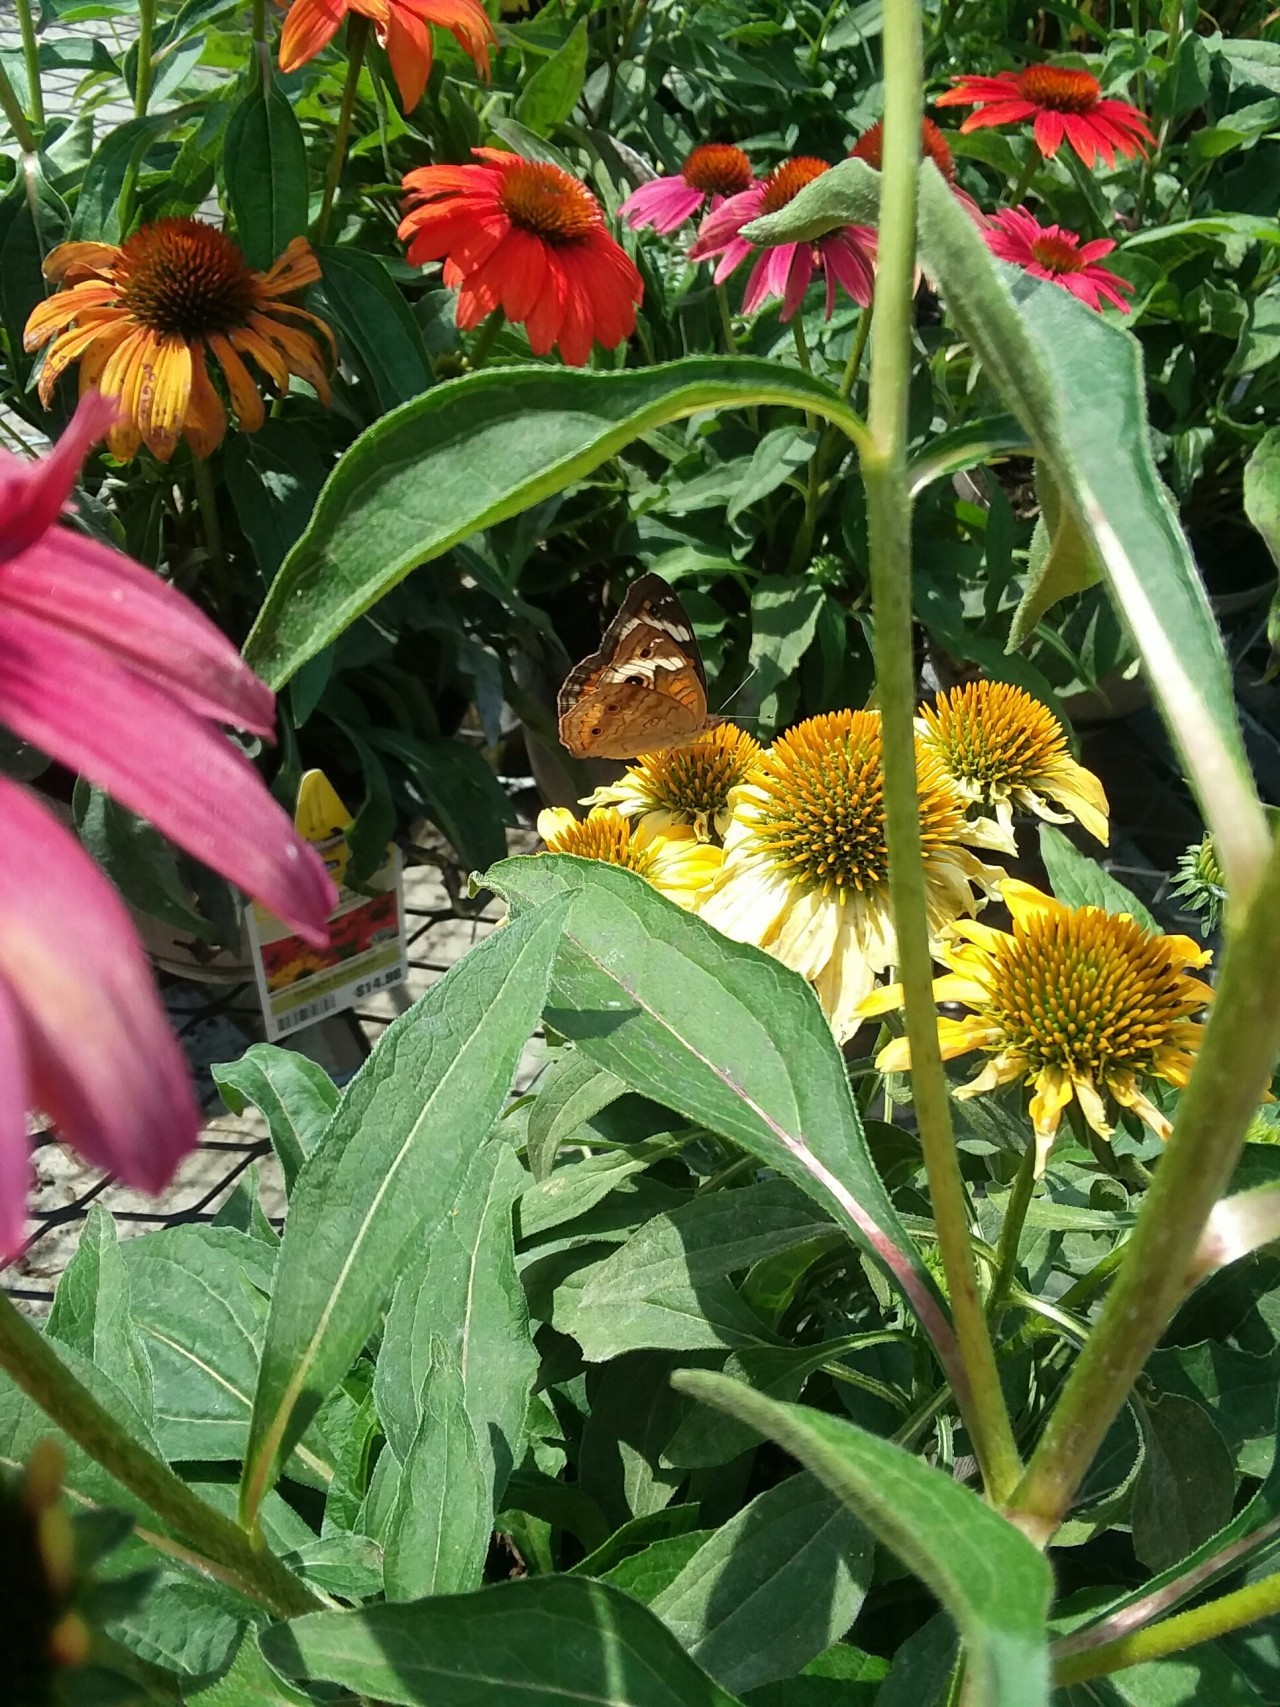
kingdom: Animalia
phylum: Arthropoda
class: Insecta
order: Lepidoptera
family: Nymphalidae
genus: Junonia
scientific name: Junonia coenia
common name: Common buckeye
